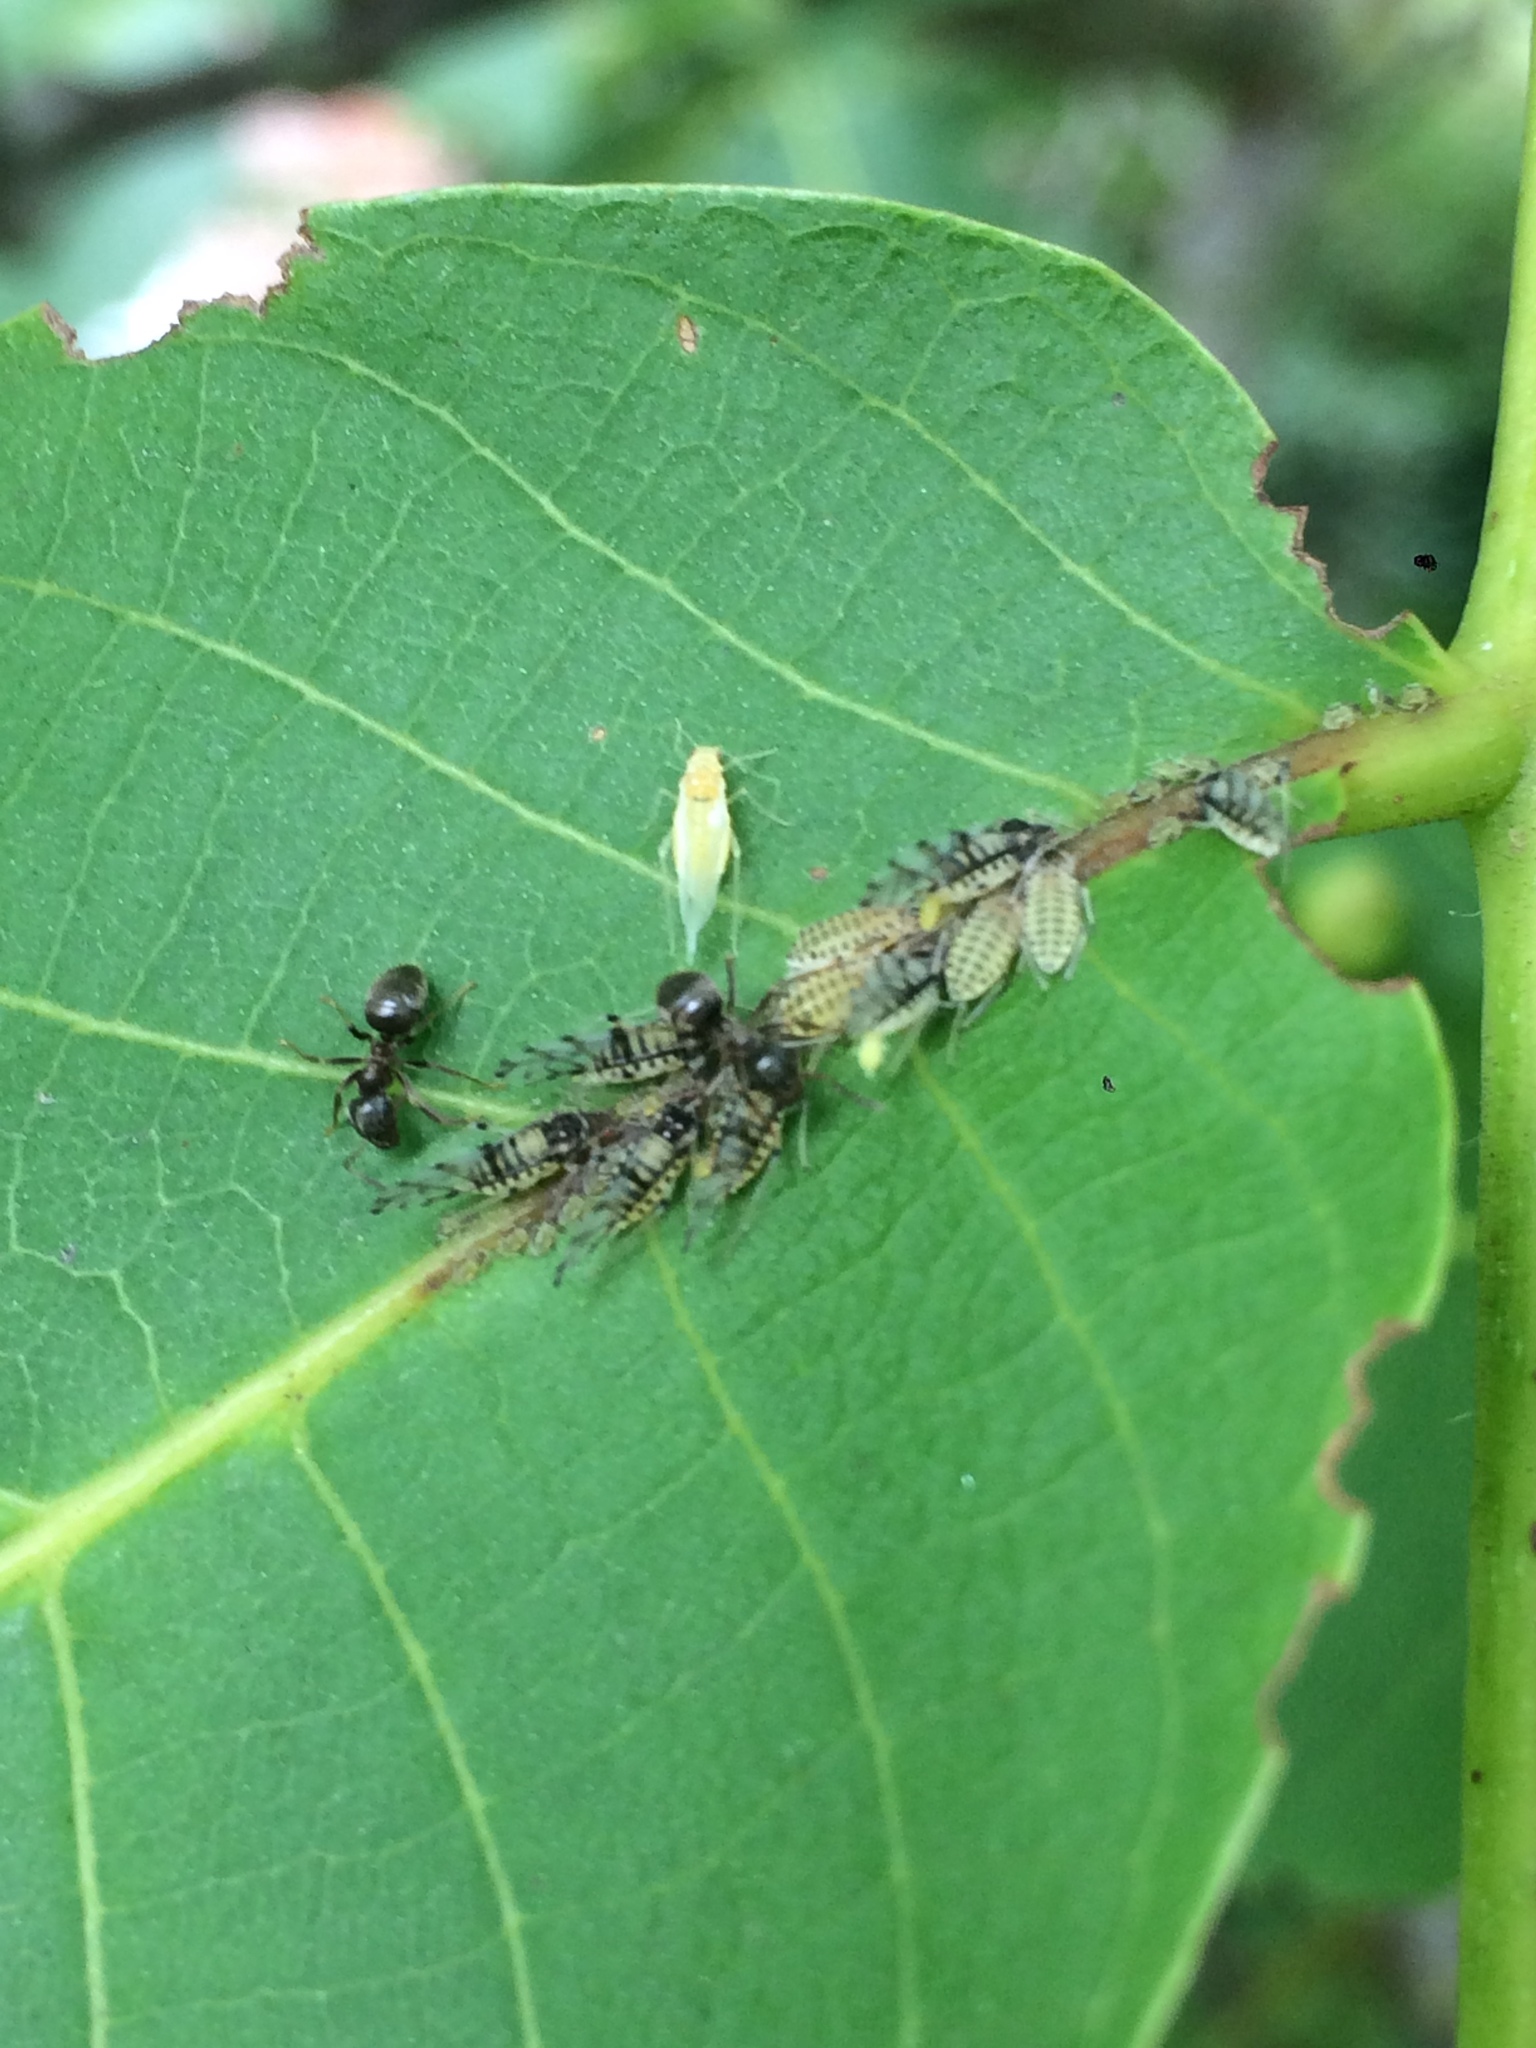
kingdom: Animalia
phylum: Arthropoda
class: Insecta
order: Hemiptera
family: Aphididae
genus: Panaphis
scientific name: Panaphis juglandis
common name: Large walnut aphid
